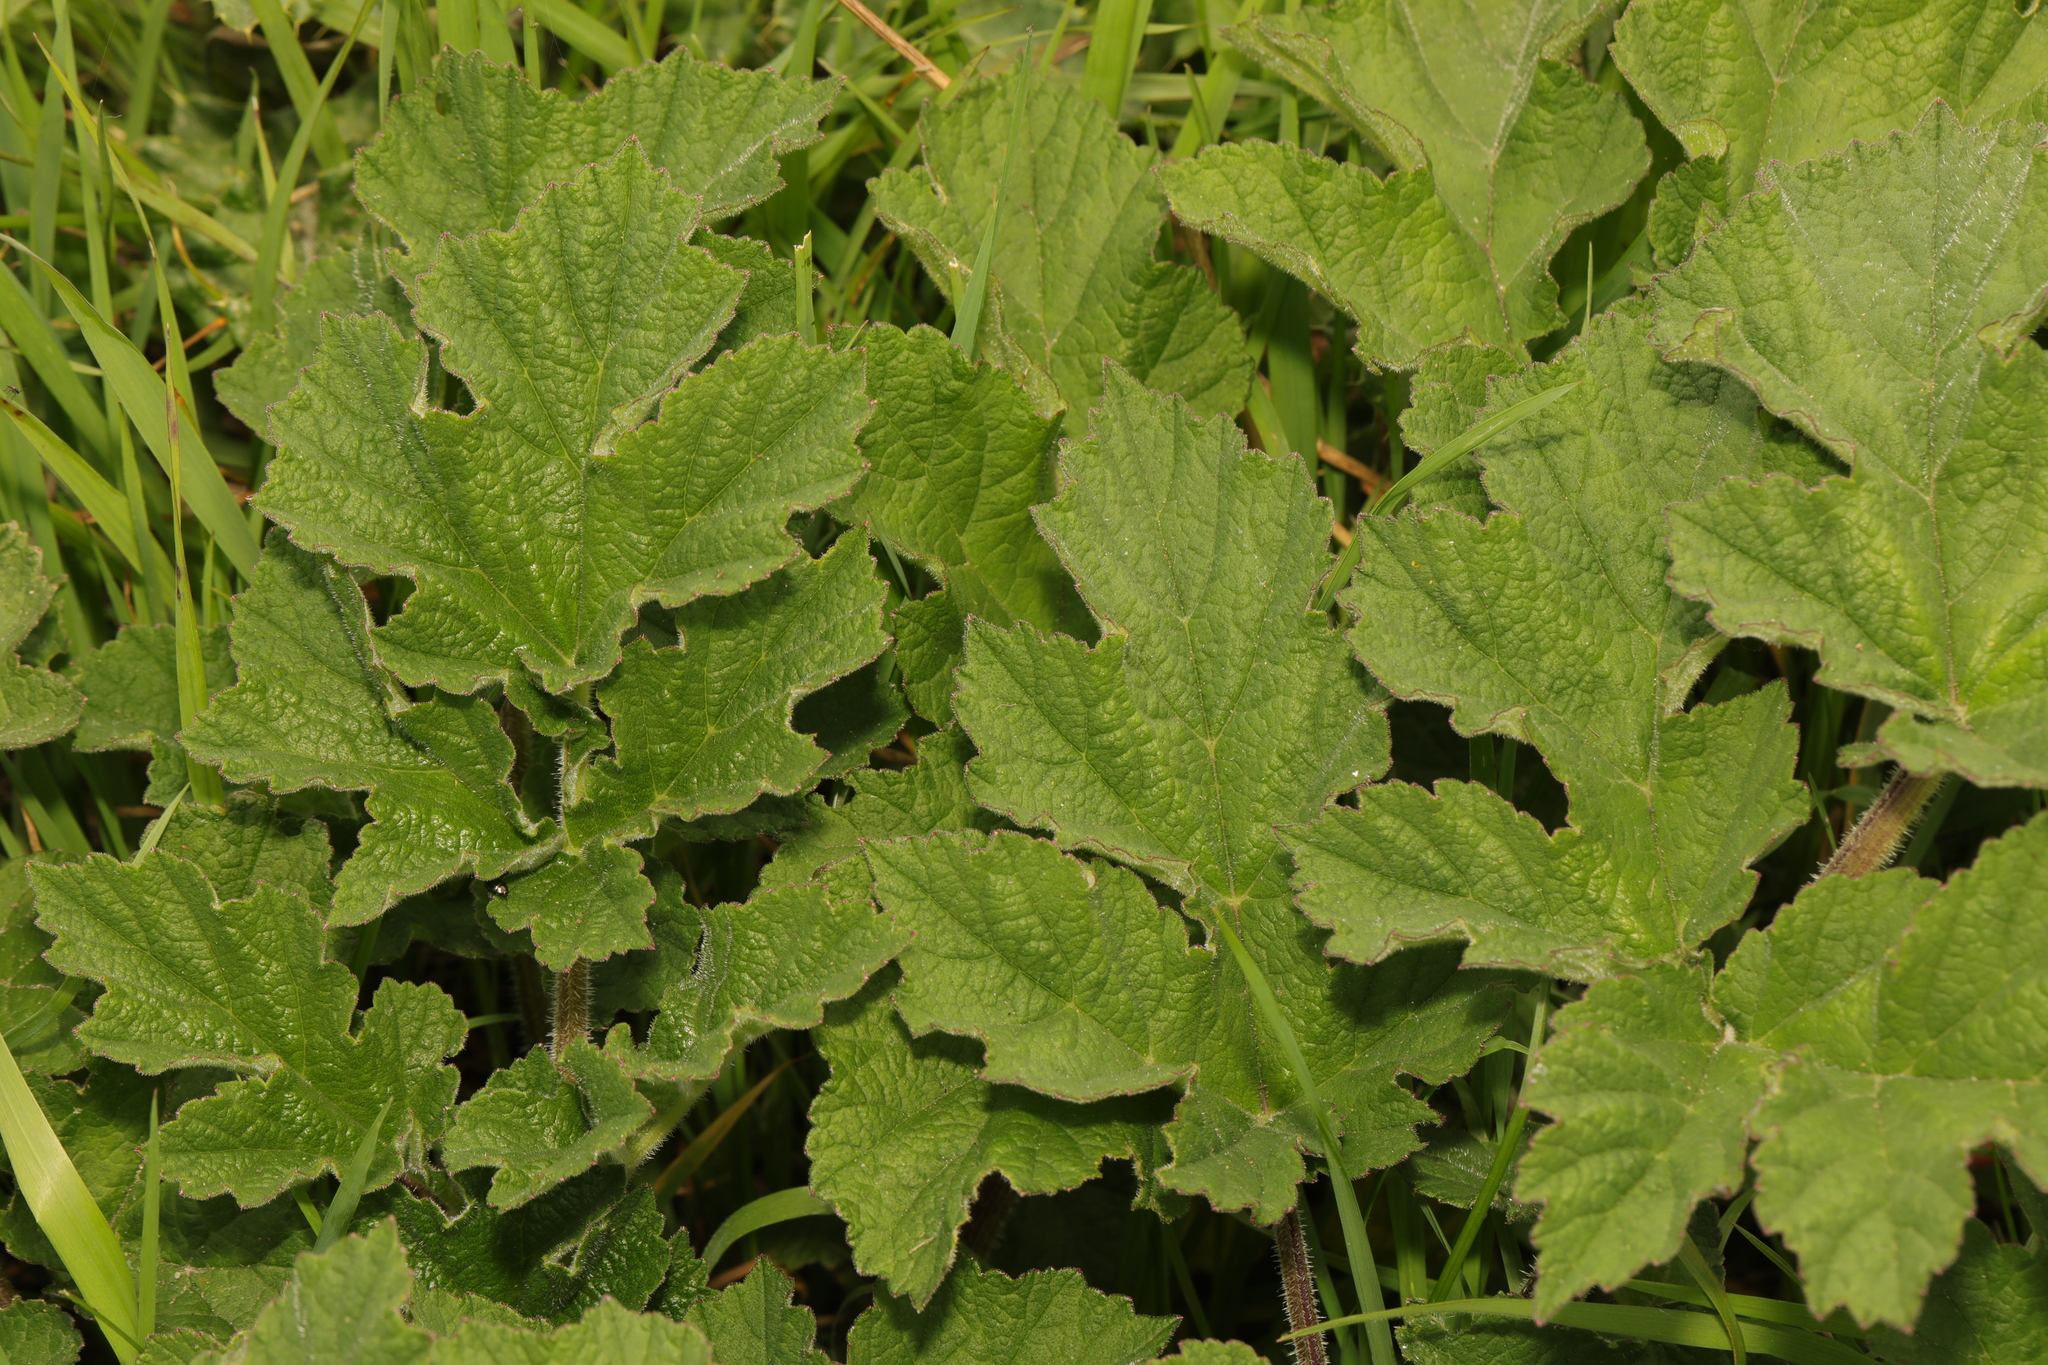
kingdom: Plantae
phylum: Tracheophyta
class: Magnoliopsida
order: Apiales
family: Apiaceae
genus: Heracleum
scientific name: Heracleum sphondylium
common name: Hogweed
